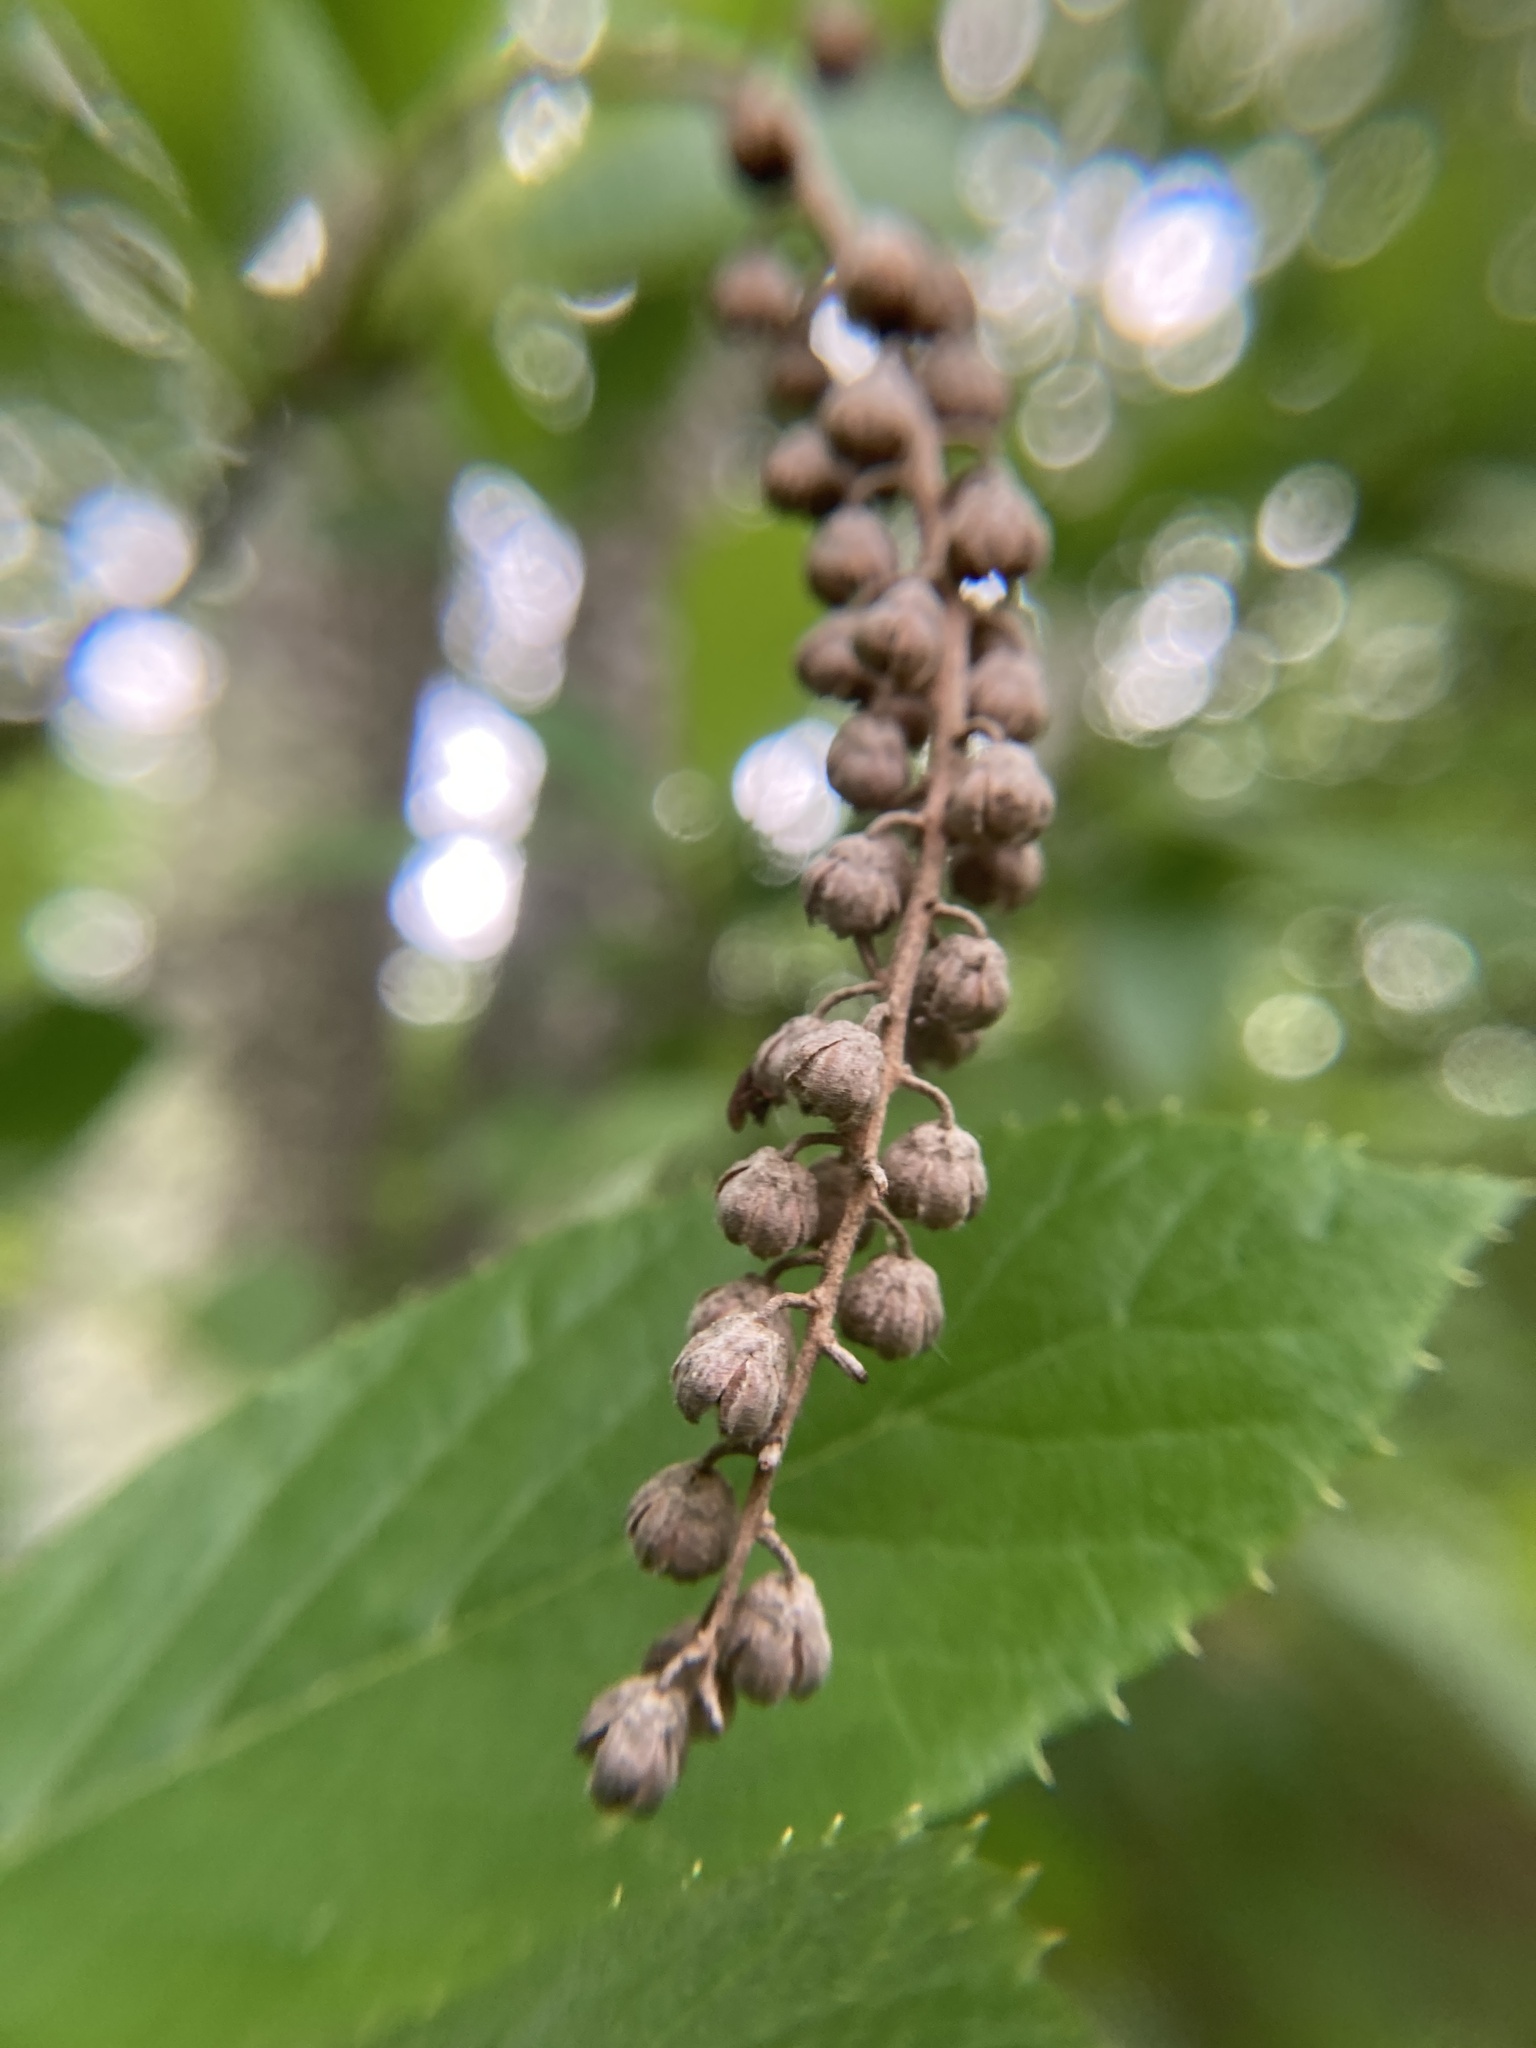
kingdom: Plantae
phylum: Tracheophyta
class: Magnoliopsida
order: Ericales
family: Clethraceae
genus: Clethra
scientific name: Clethra alnifolia
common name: Sweet pepperbush
